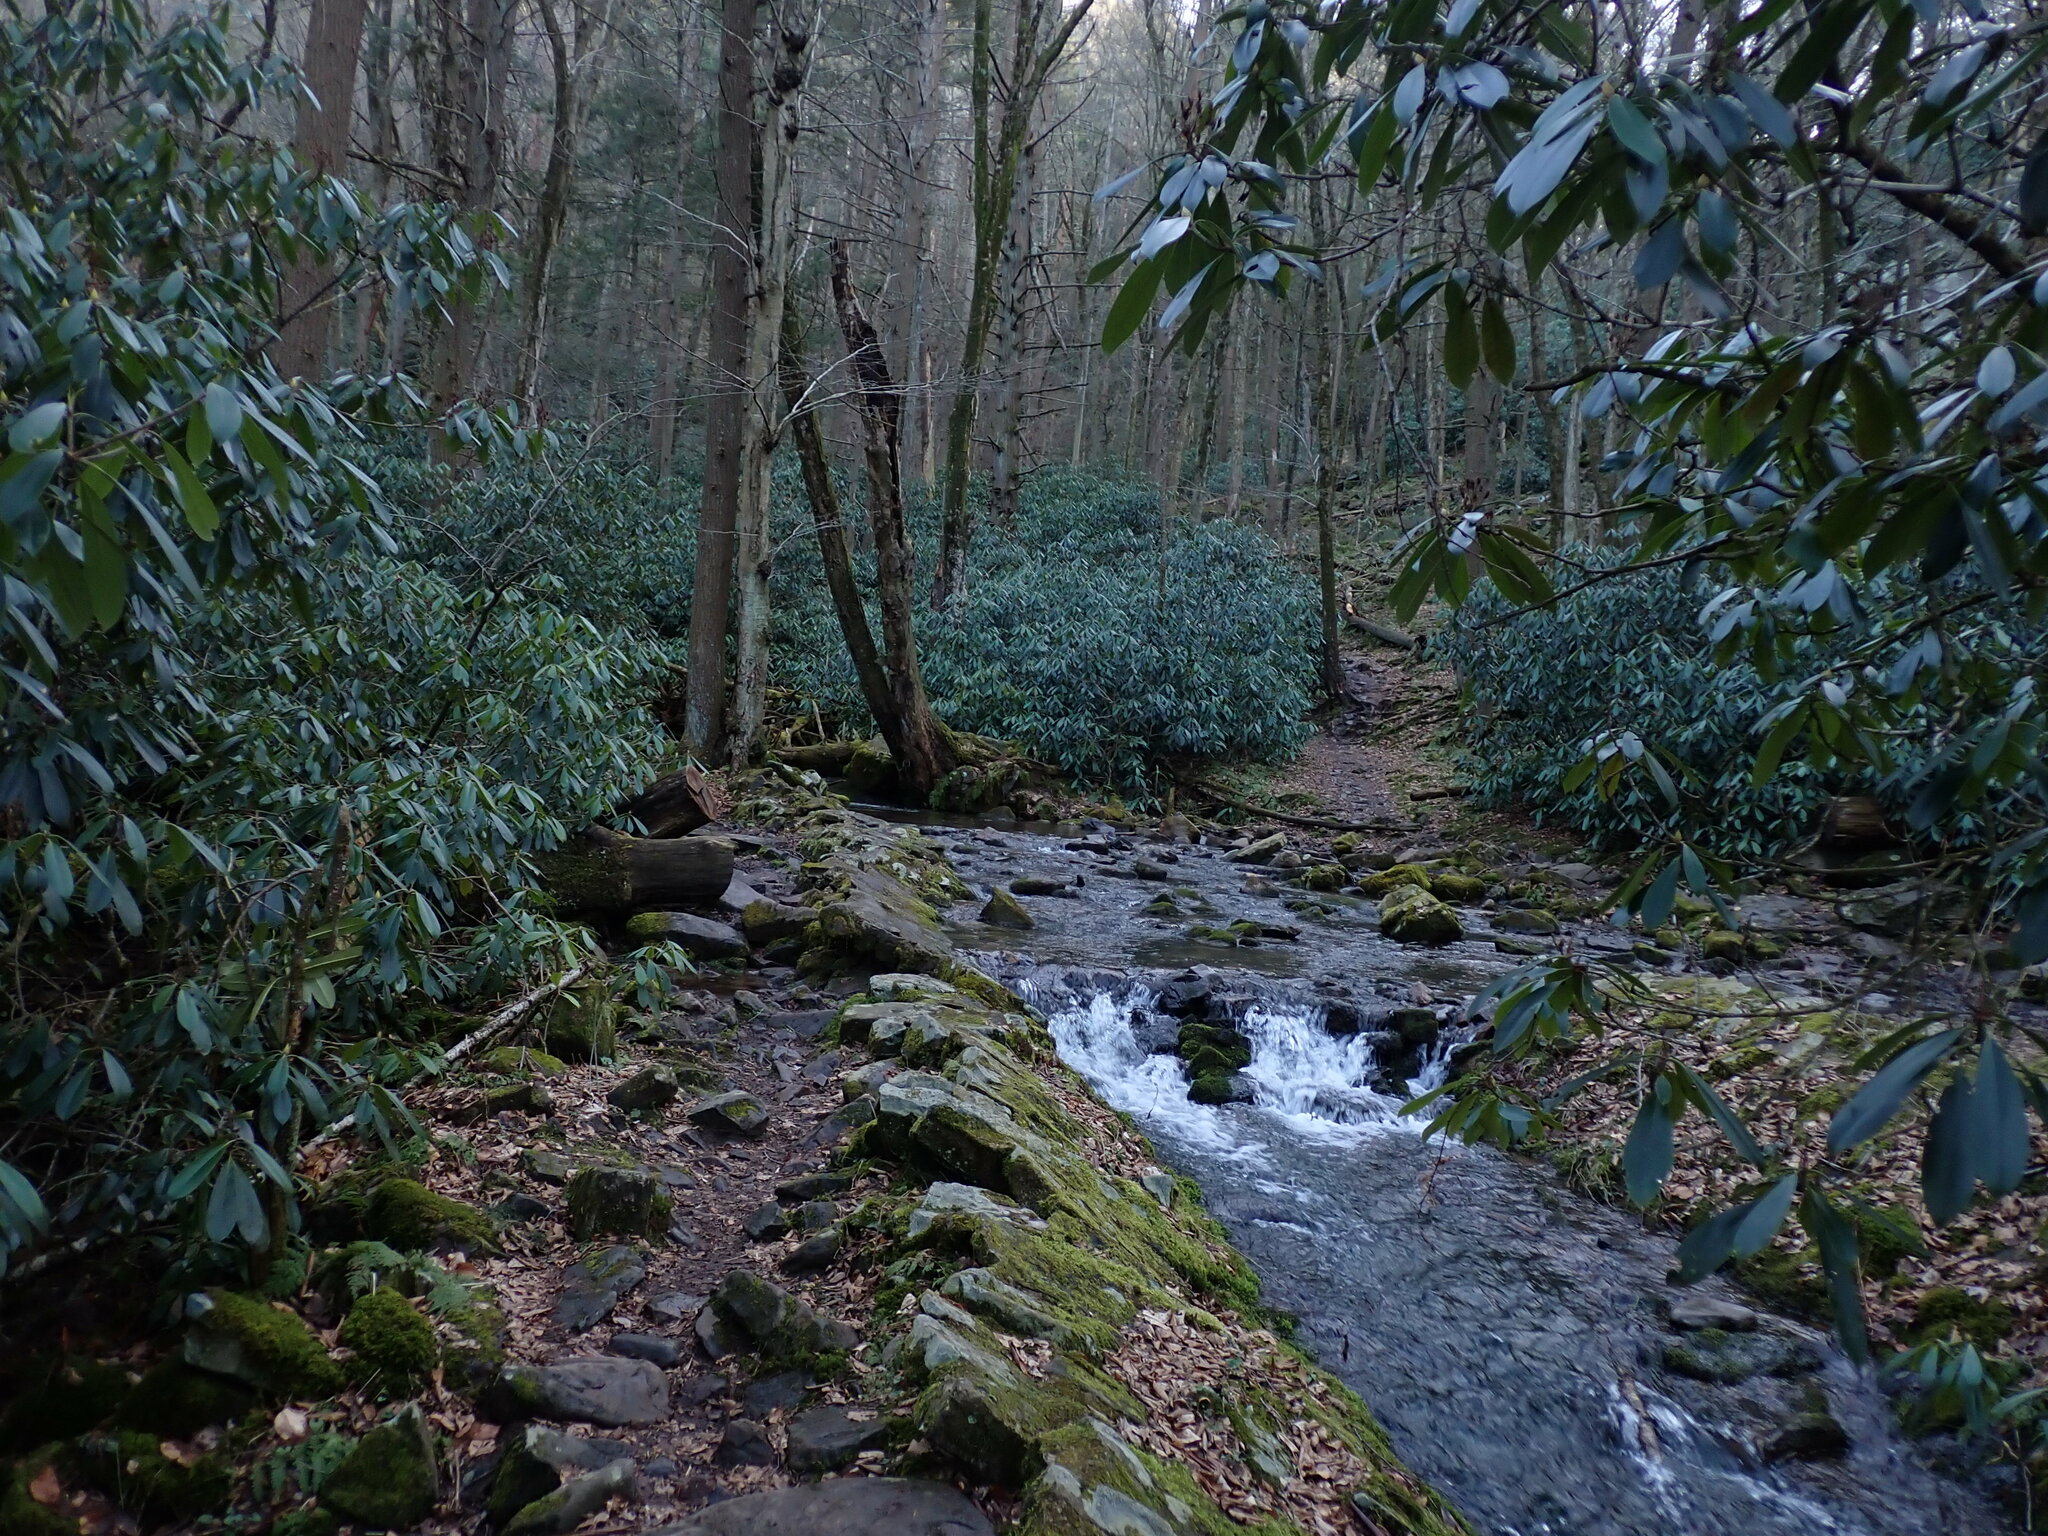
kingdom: Plantae
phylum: Tracheophyta
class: Magnoliopsida
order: Ericales
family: Ericaceae
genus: Rhododendron
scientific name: Rhododendron maximum
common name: Great rhododendron
